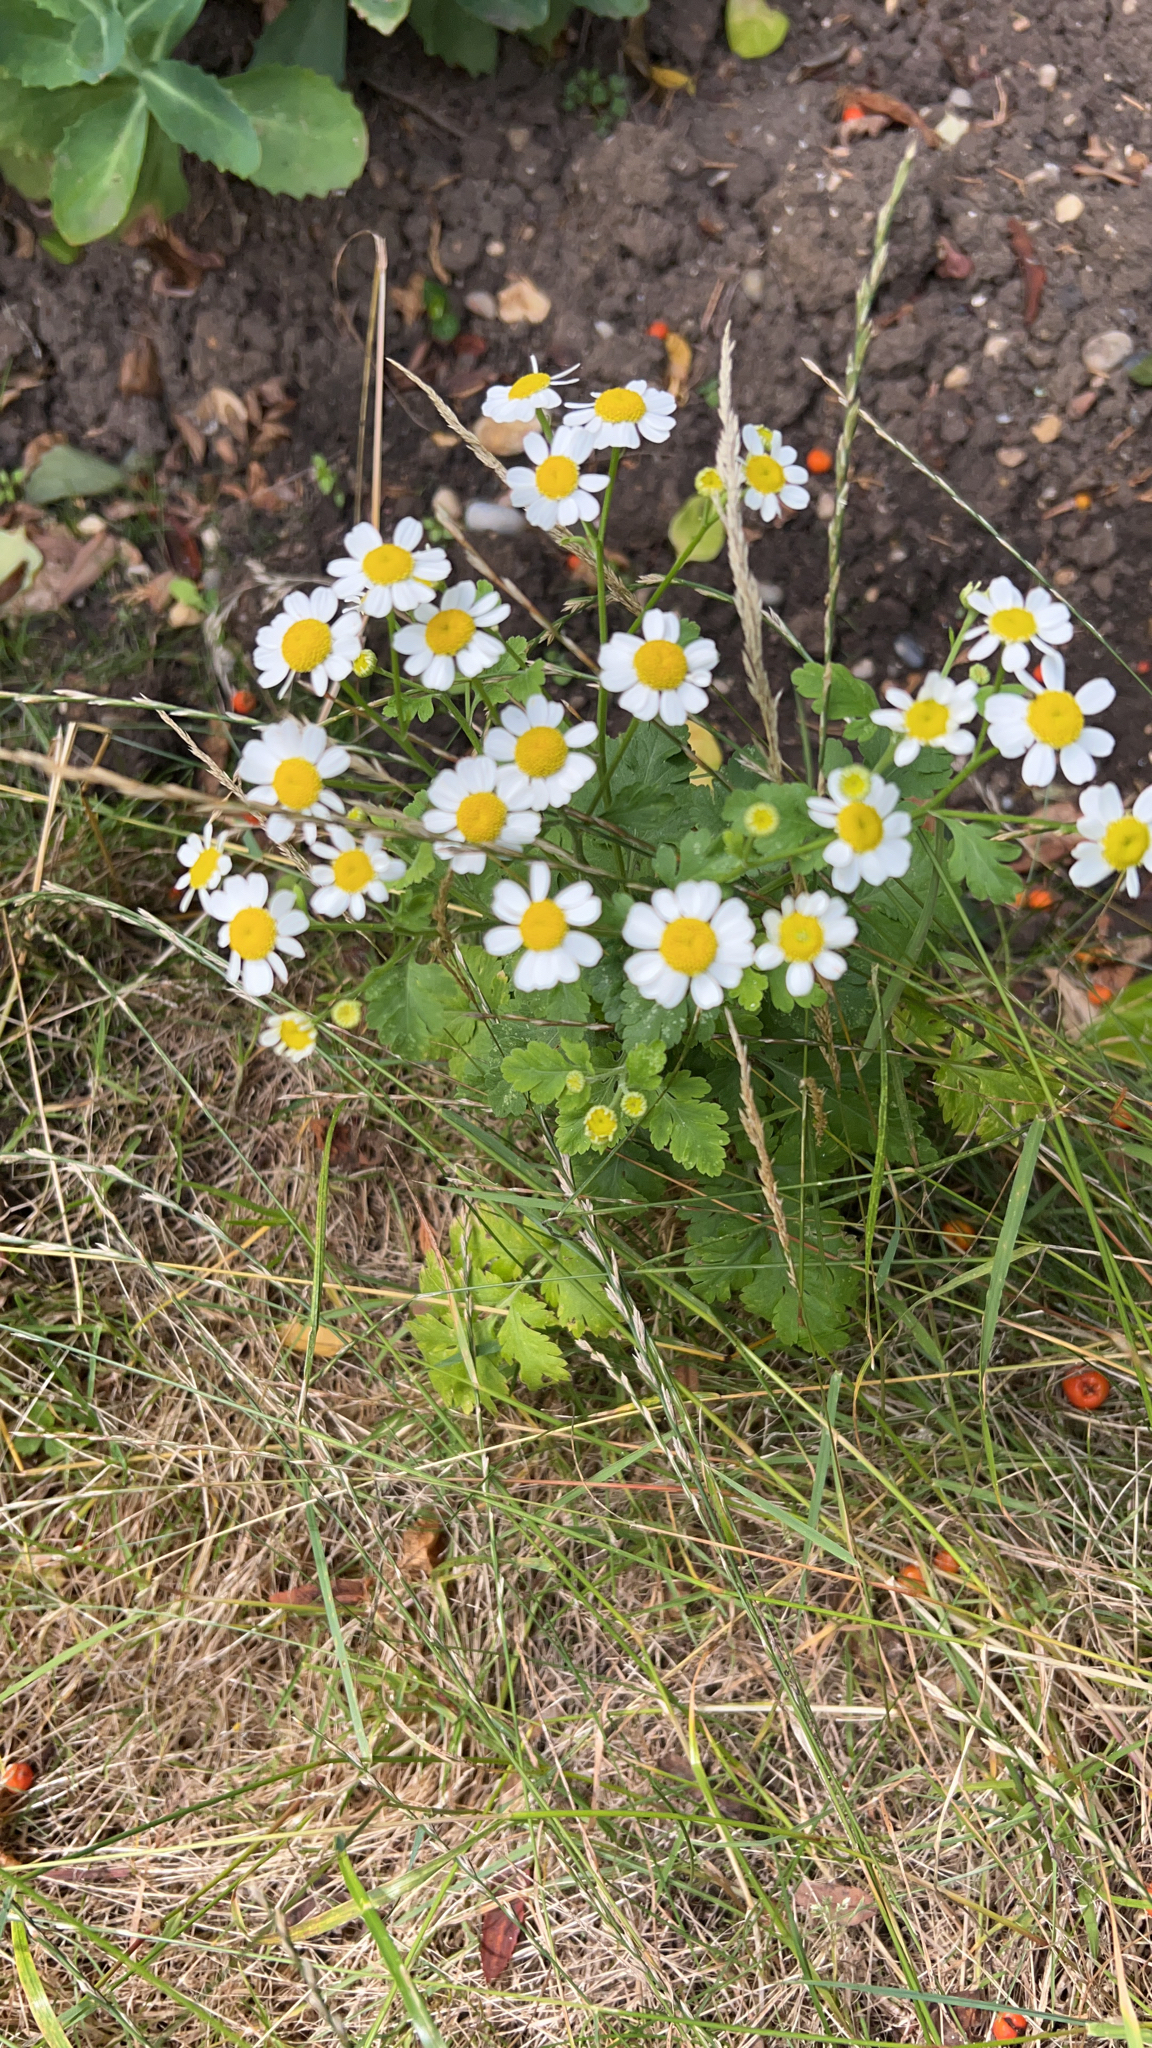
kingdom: Plantae
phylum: Tracheophyta
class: Magnoliopsida
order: Asterales
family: Asteraceae
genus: Tanacetum
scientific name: Tanacetum parthenium
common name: Feverfew
